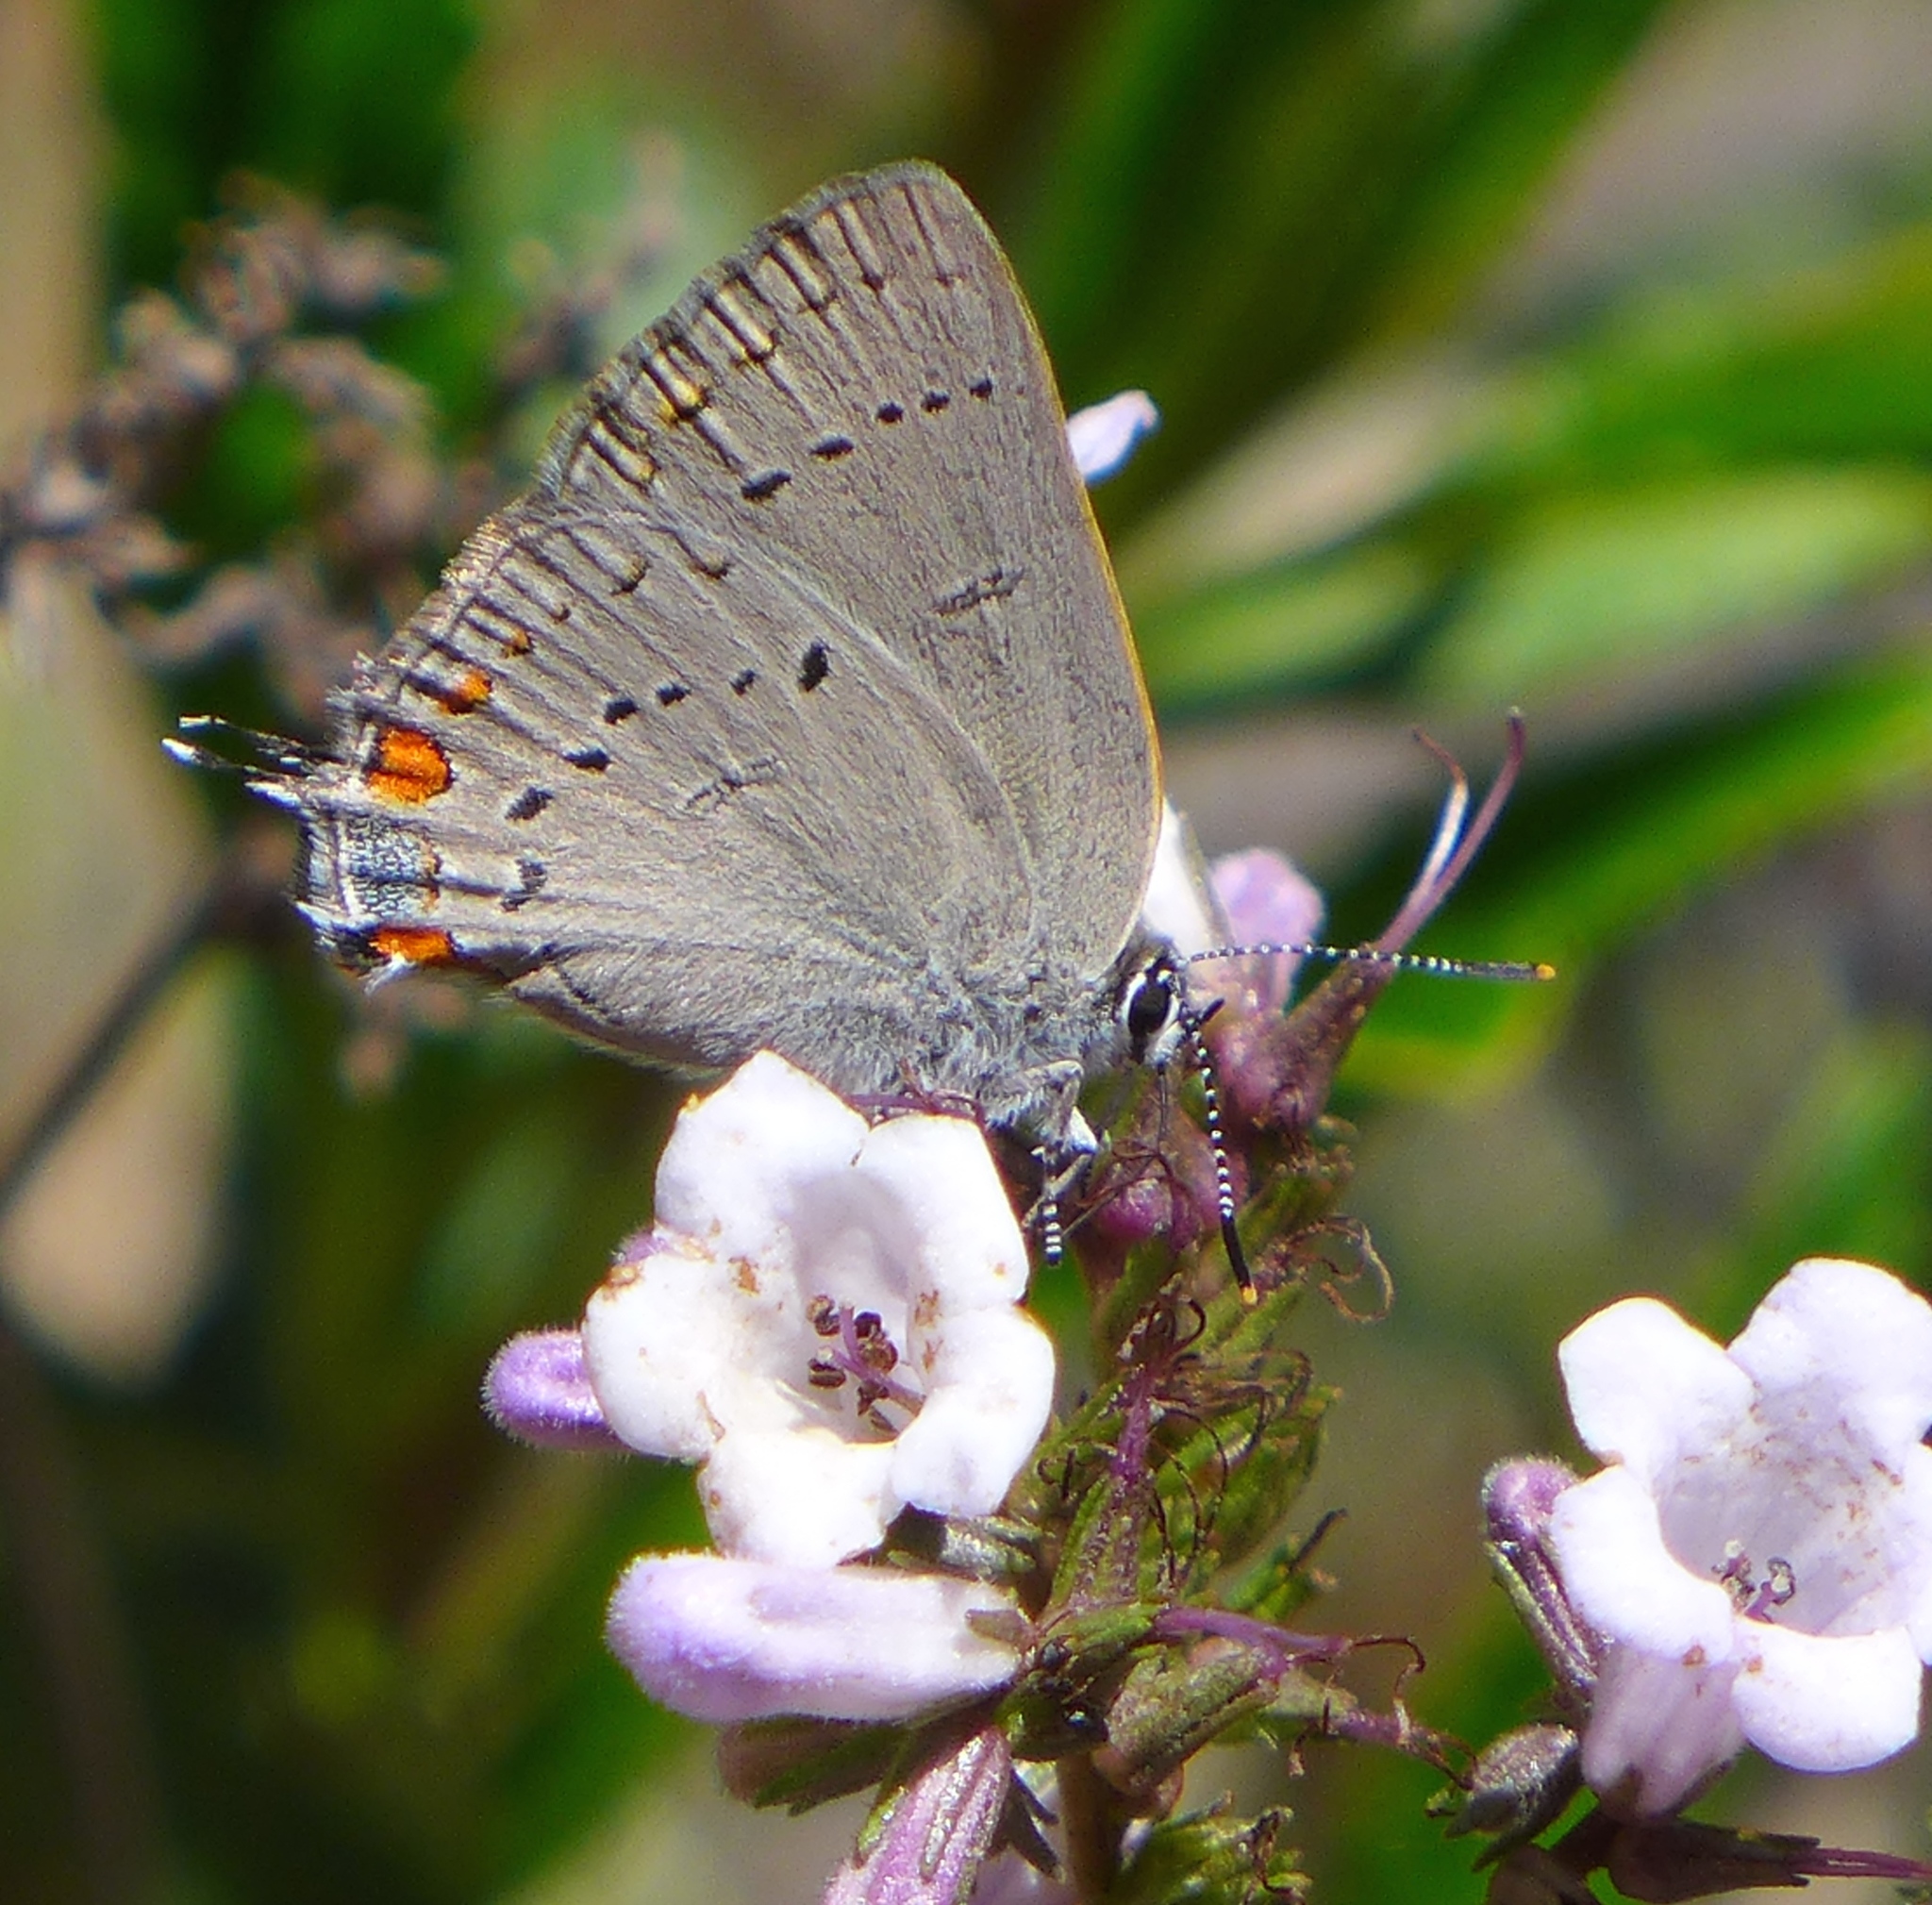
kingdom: Animalia
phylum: Arthropoda
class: Insecta
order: Lepidoptera
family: Lycaenidae
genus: Strymon
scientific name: Strymon acadica
